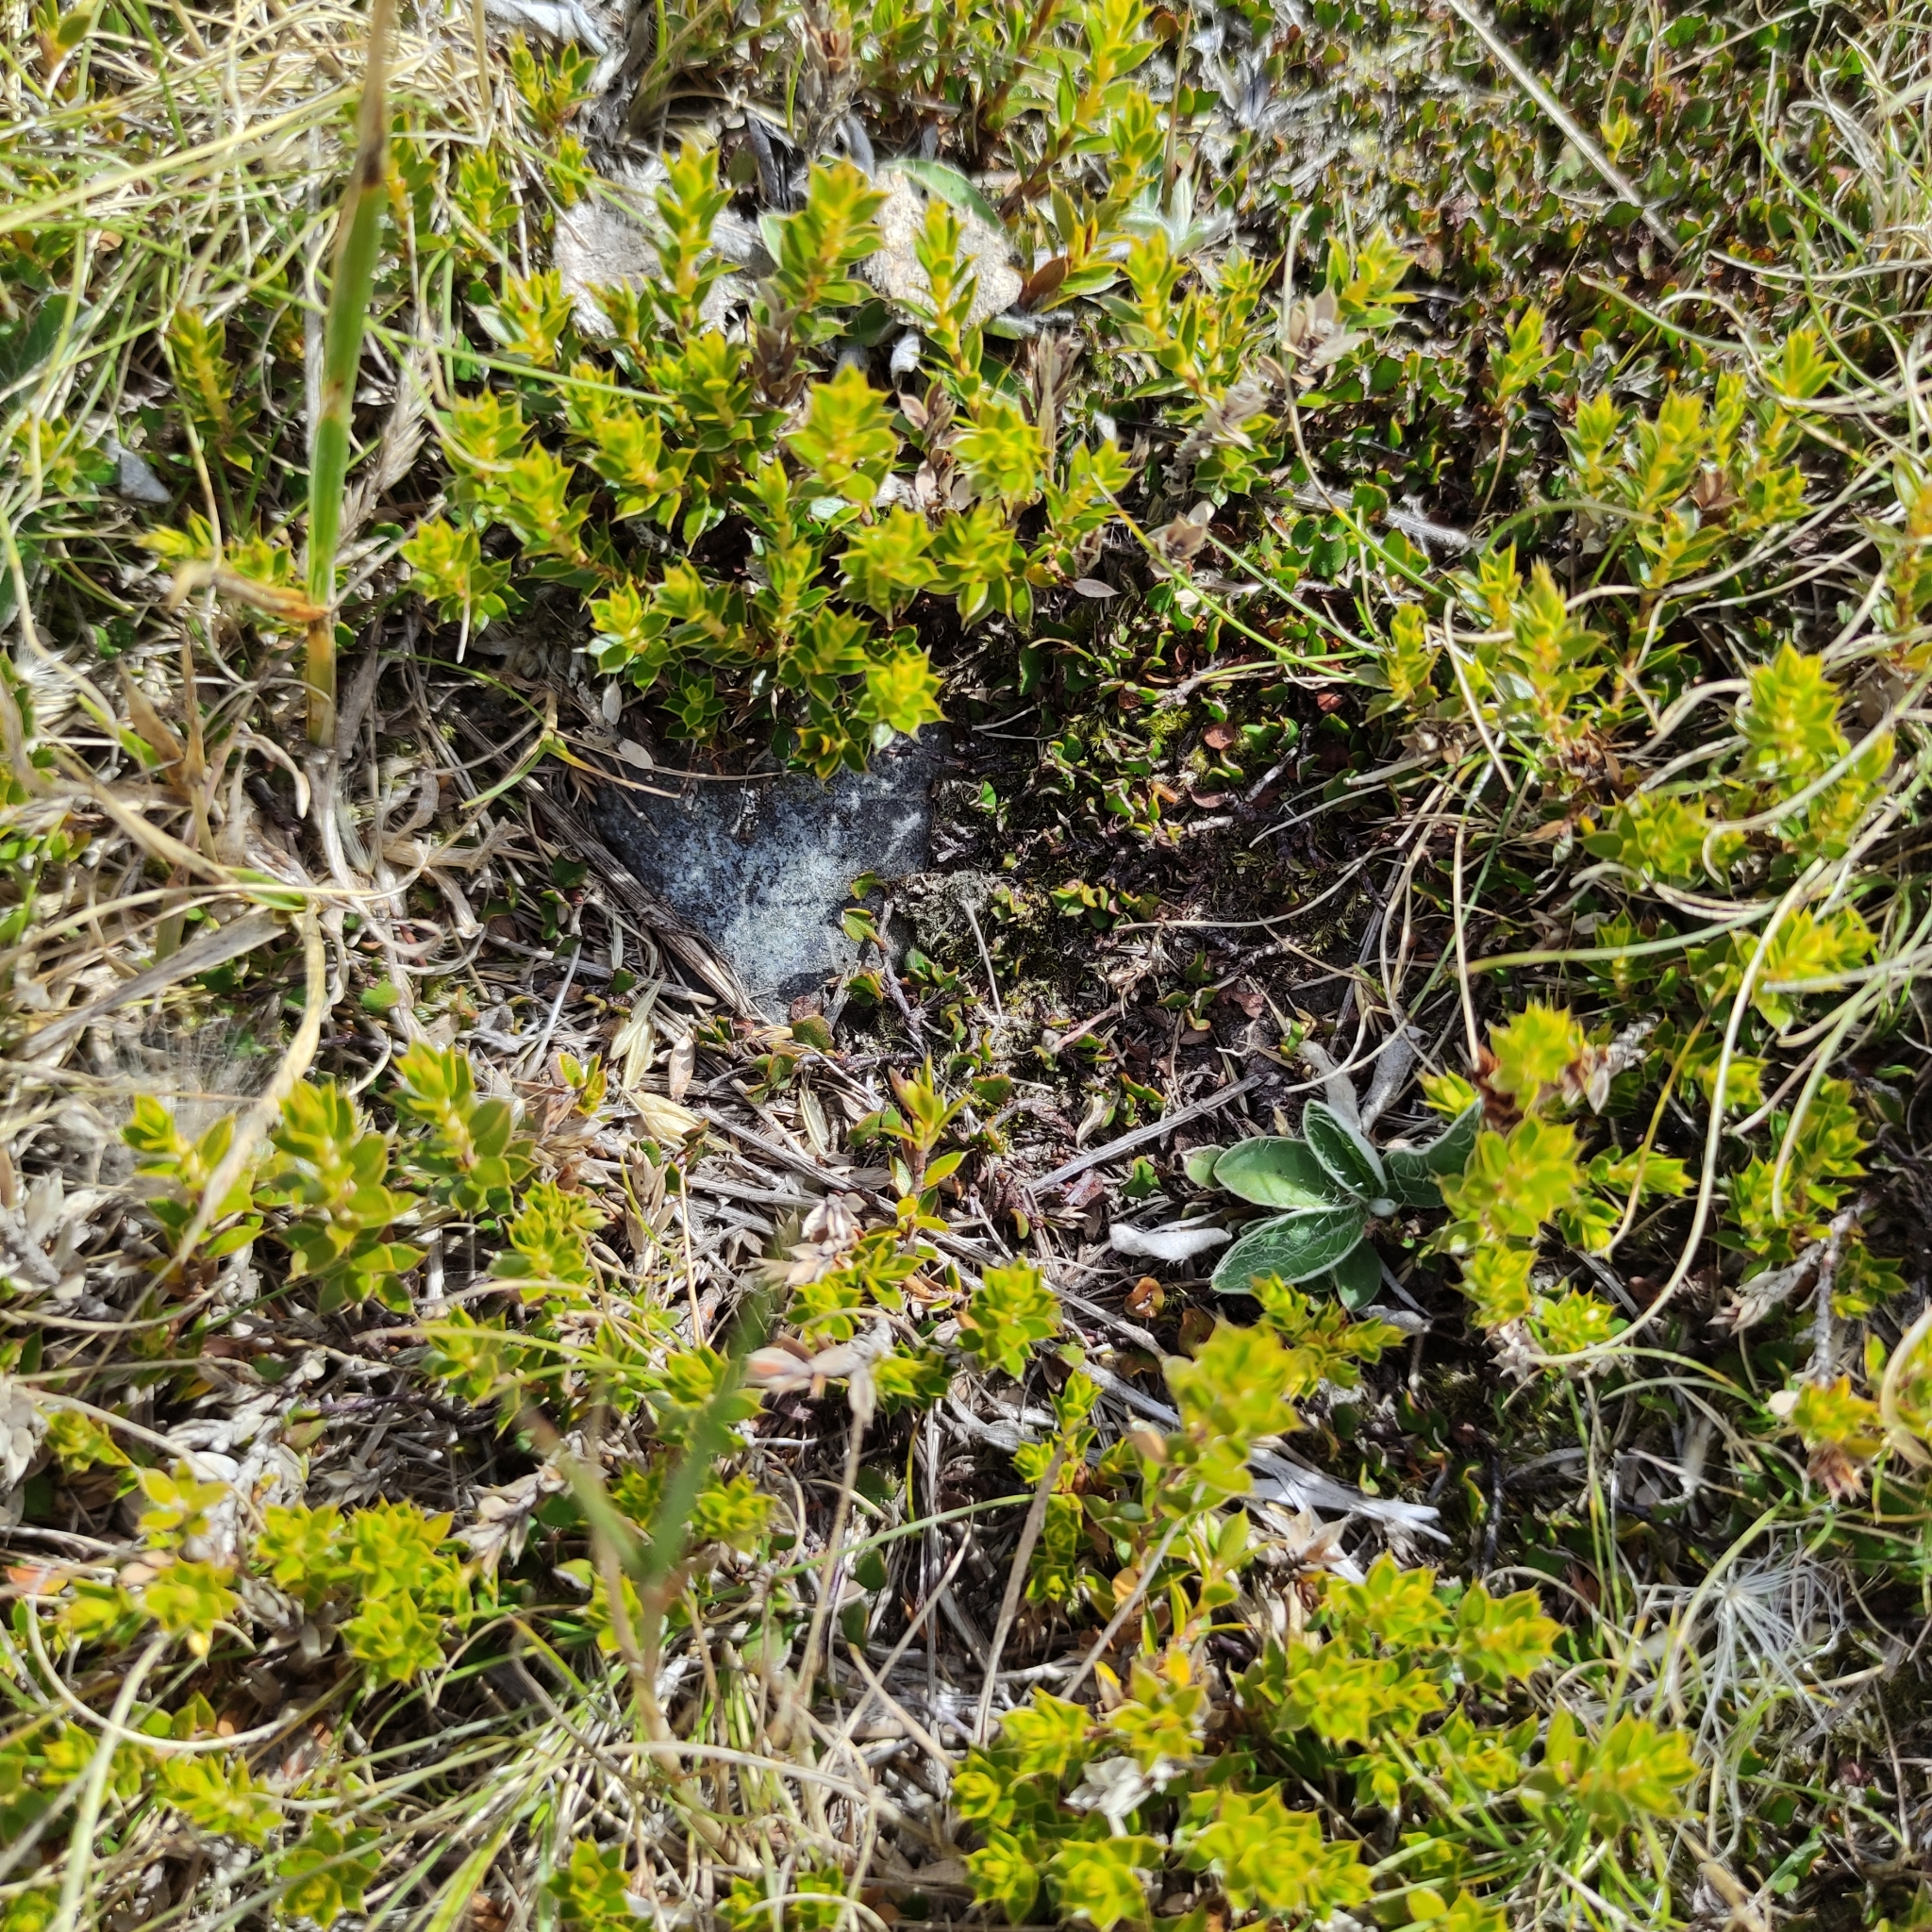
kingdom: Plantae
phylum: Tracheophyta
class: Magnoliopsida
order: Ericales
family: Ericaceae
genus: Styphelia
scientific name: Styphelia nesophila
